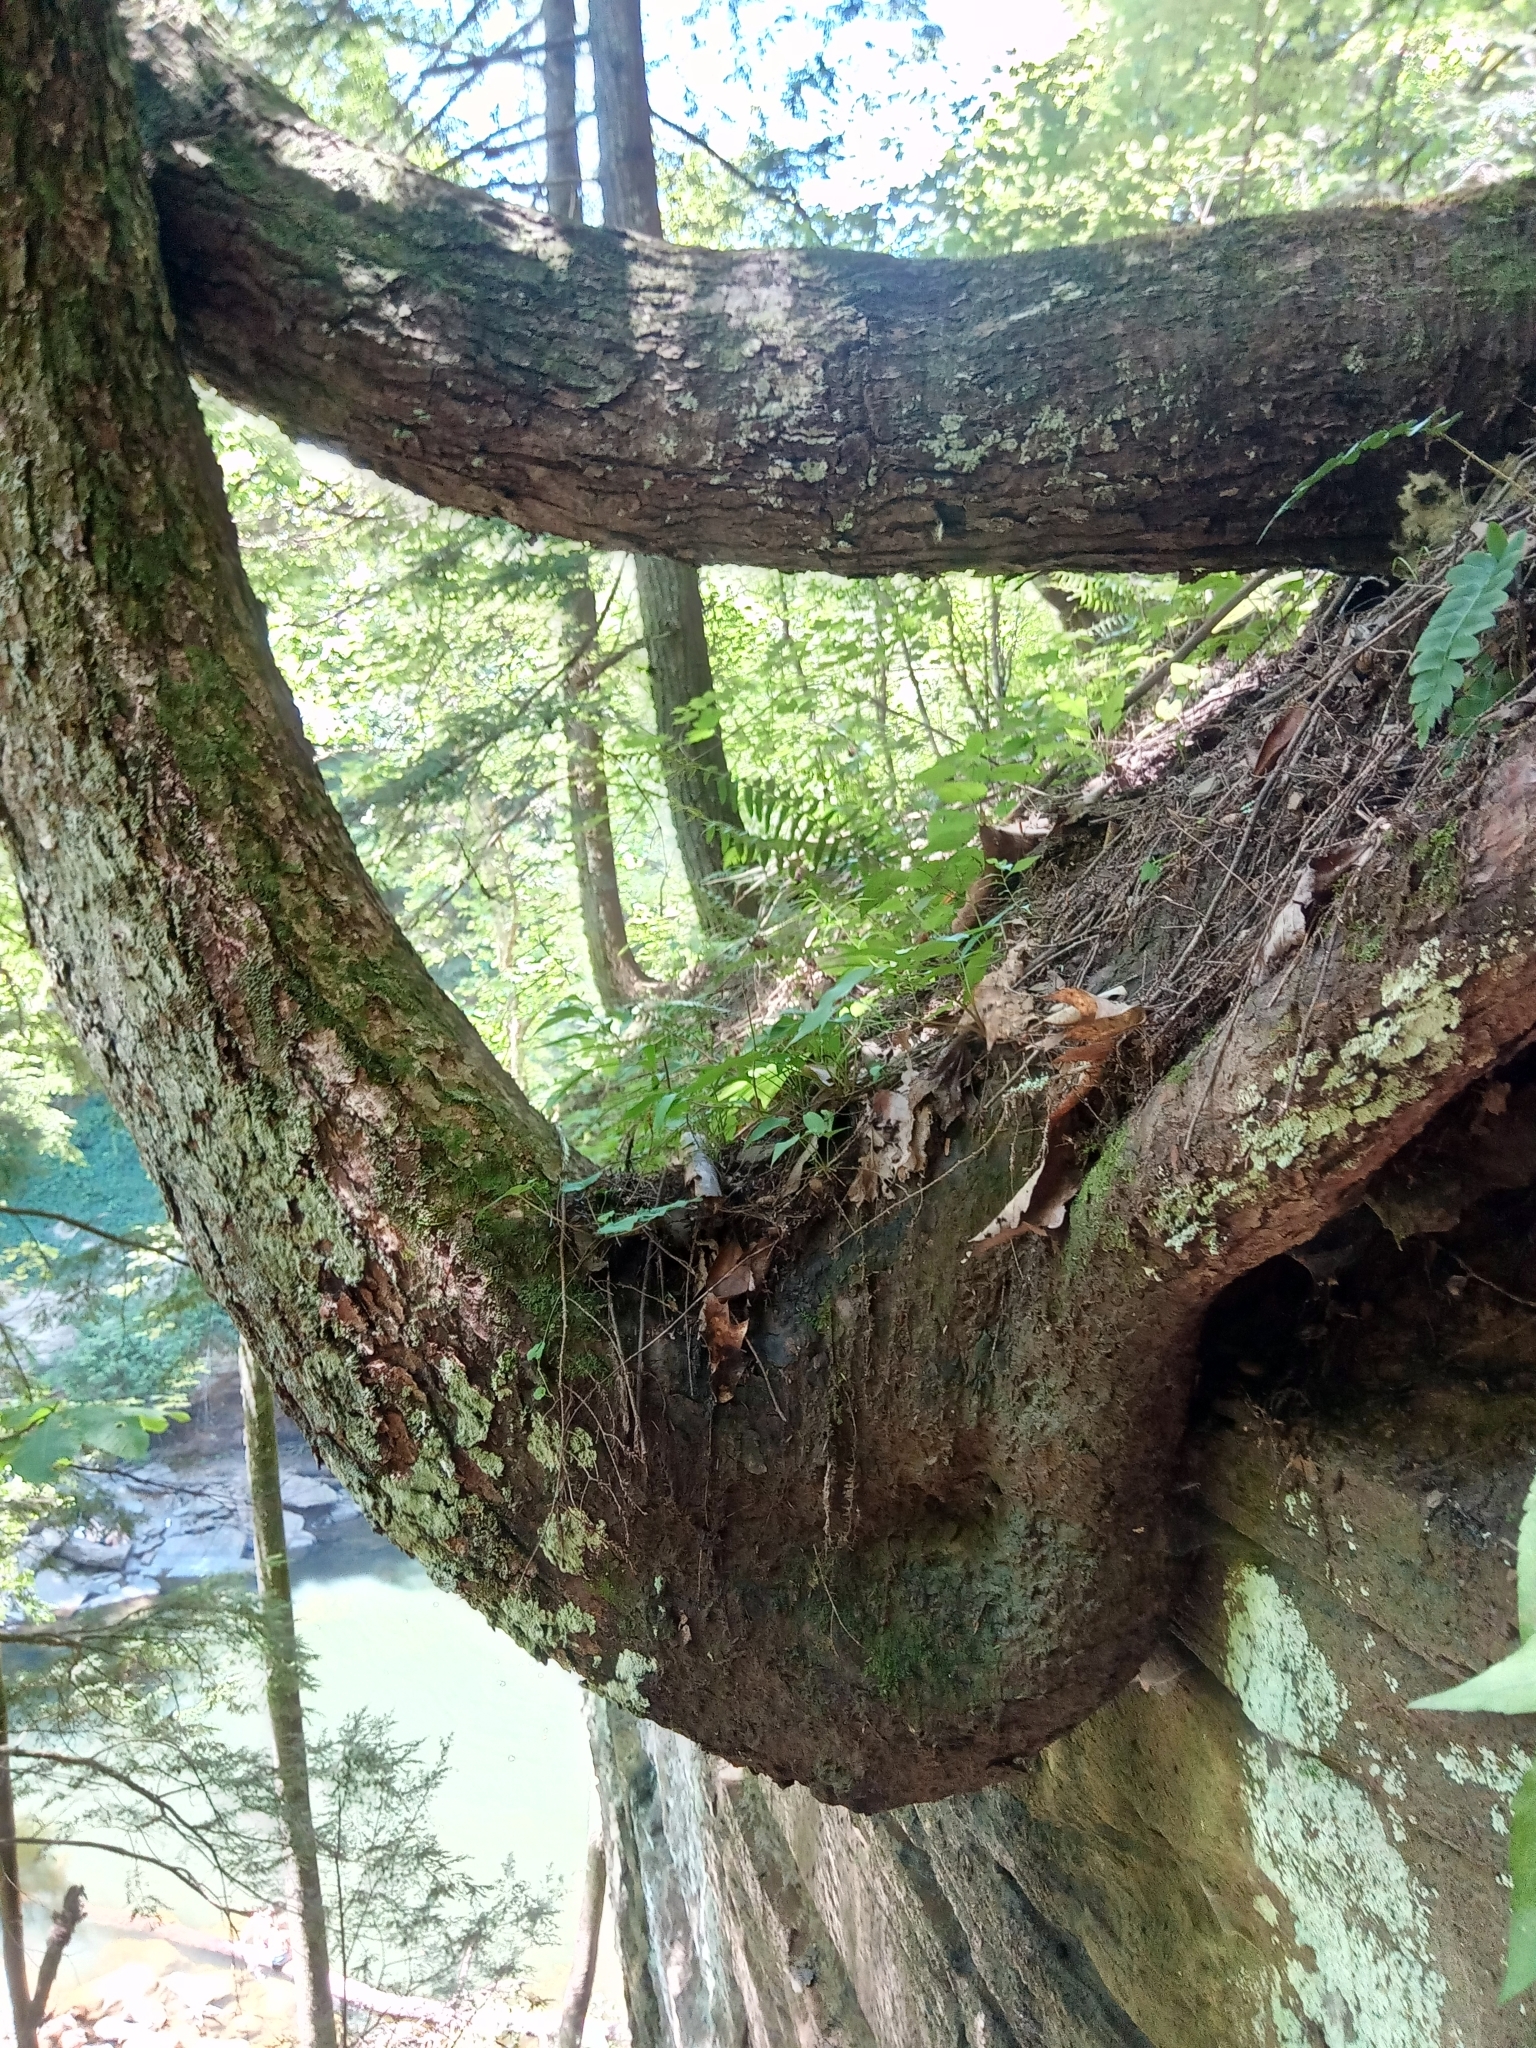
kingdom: Plantae
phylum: Tracheophyta
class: Pinopsida
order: Pinales
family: Pinaceae
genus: Tsuga
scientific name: Tsuga canadensis
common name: Eastern hemlock
